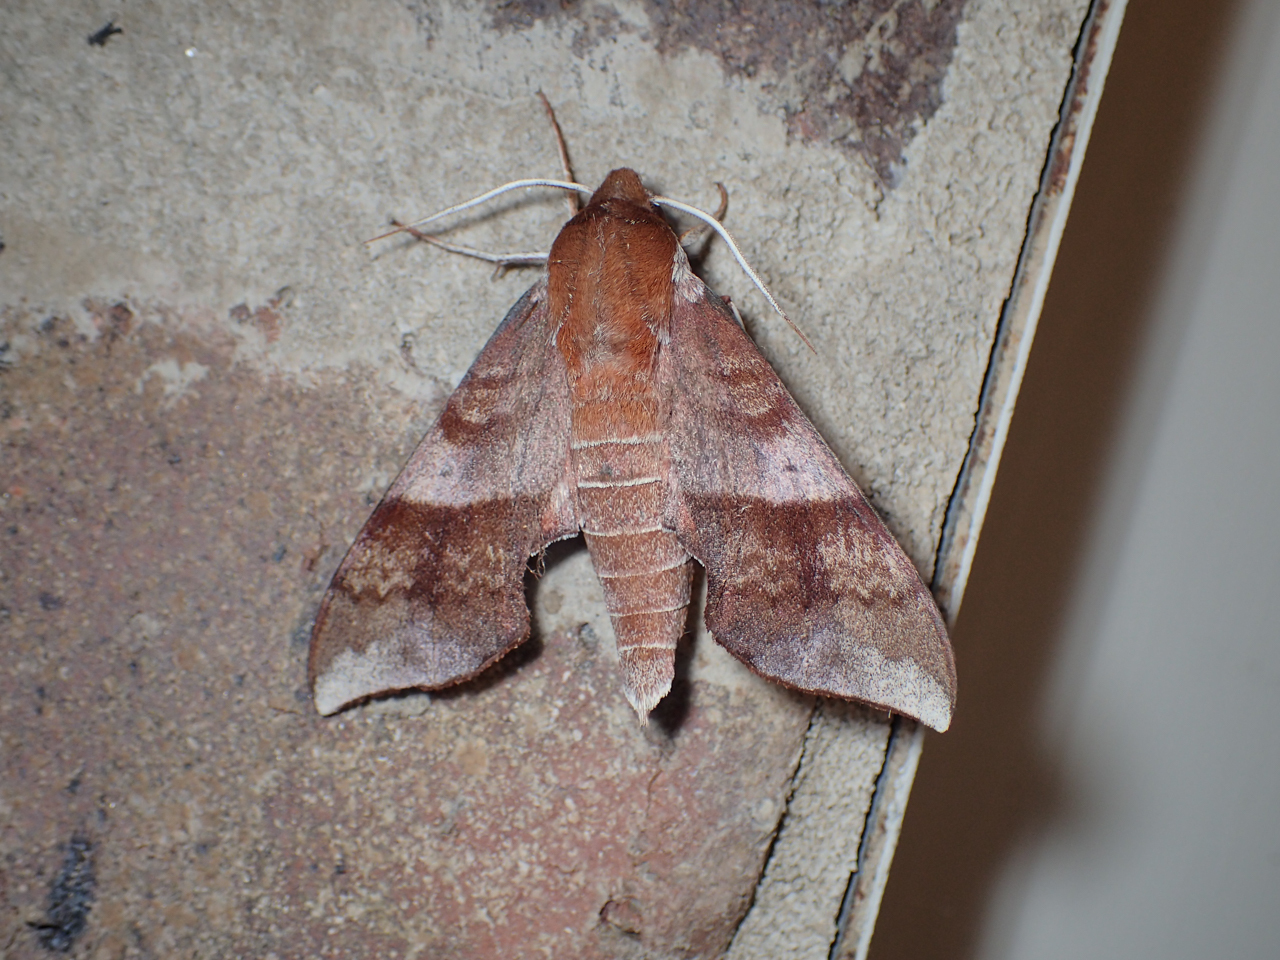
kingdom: Animalia
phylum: Arthropoda
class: Insecta
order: Lepidoptera
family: Sphingidae
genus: Darapsa
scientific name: Darapsa choerilus
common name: Azalea sphinx
